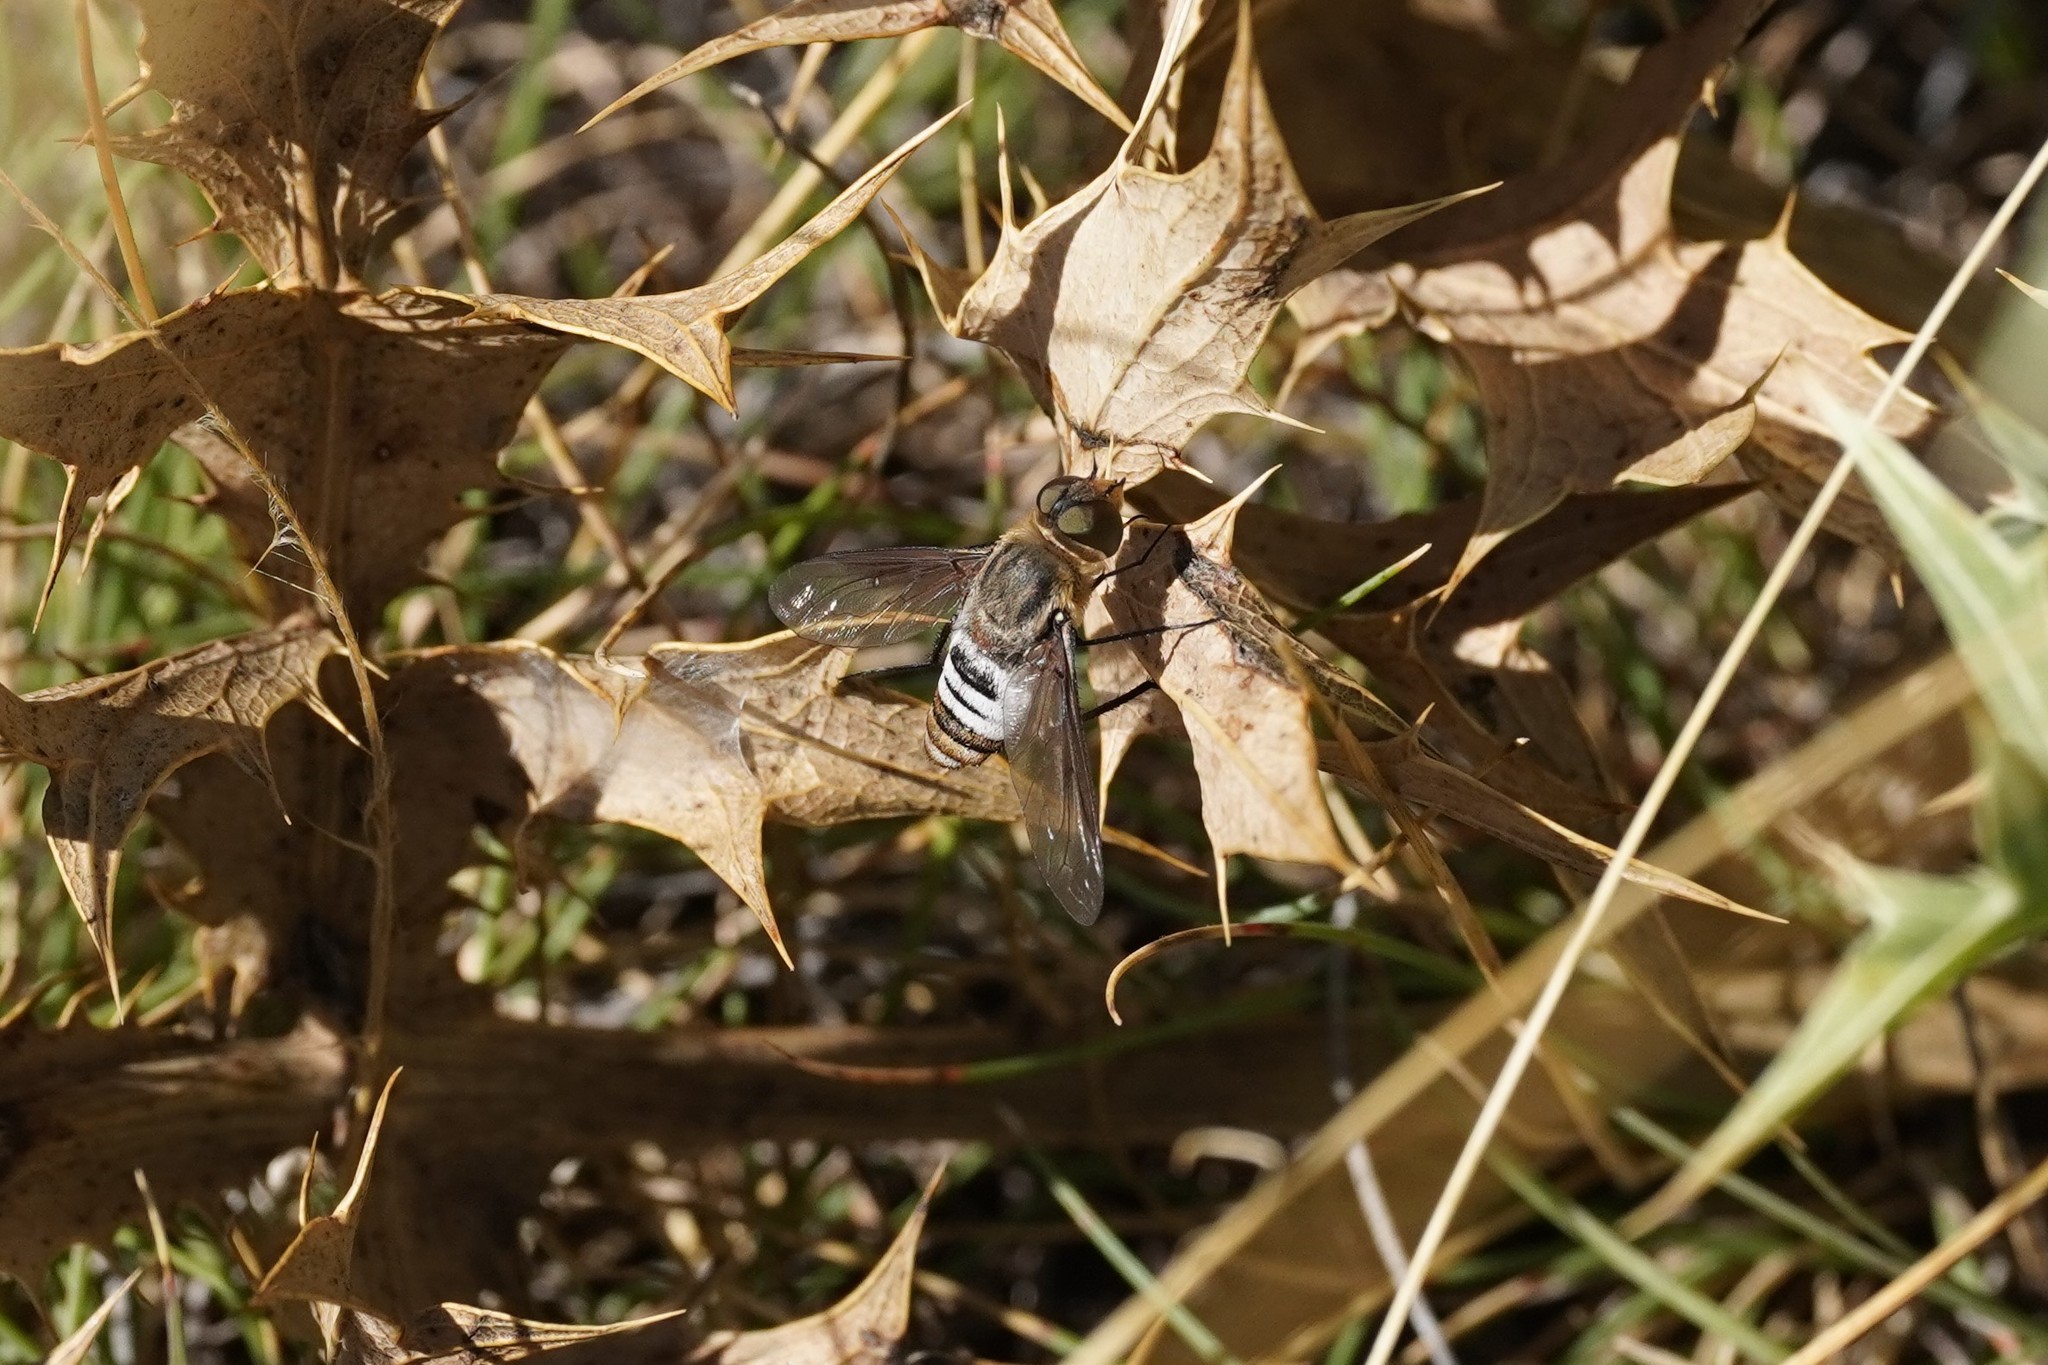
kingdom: Animalia
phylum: Arthropoda
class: Insecta
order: Diptera
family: Bombyliidae
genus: Defilippia
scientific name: Defilippia minos
